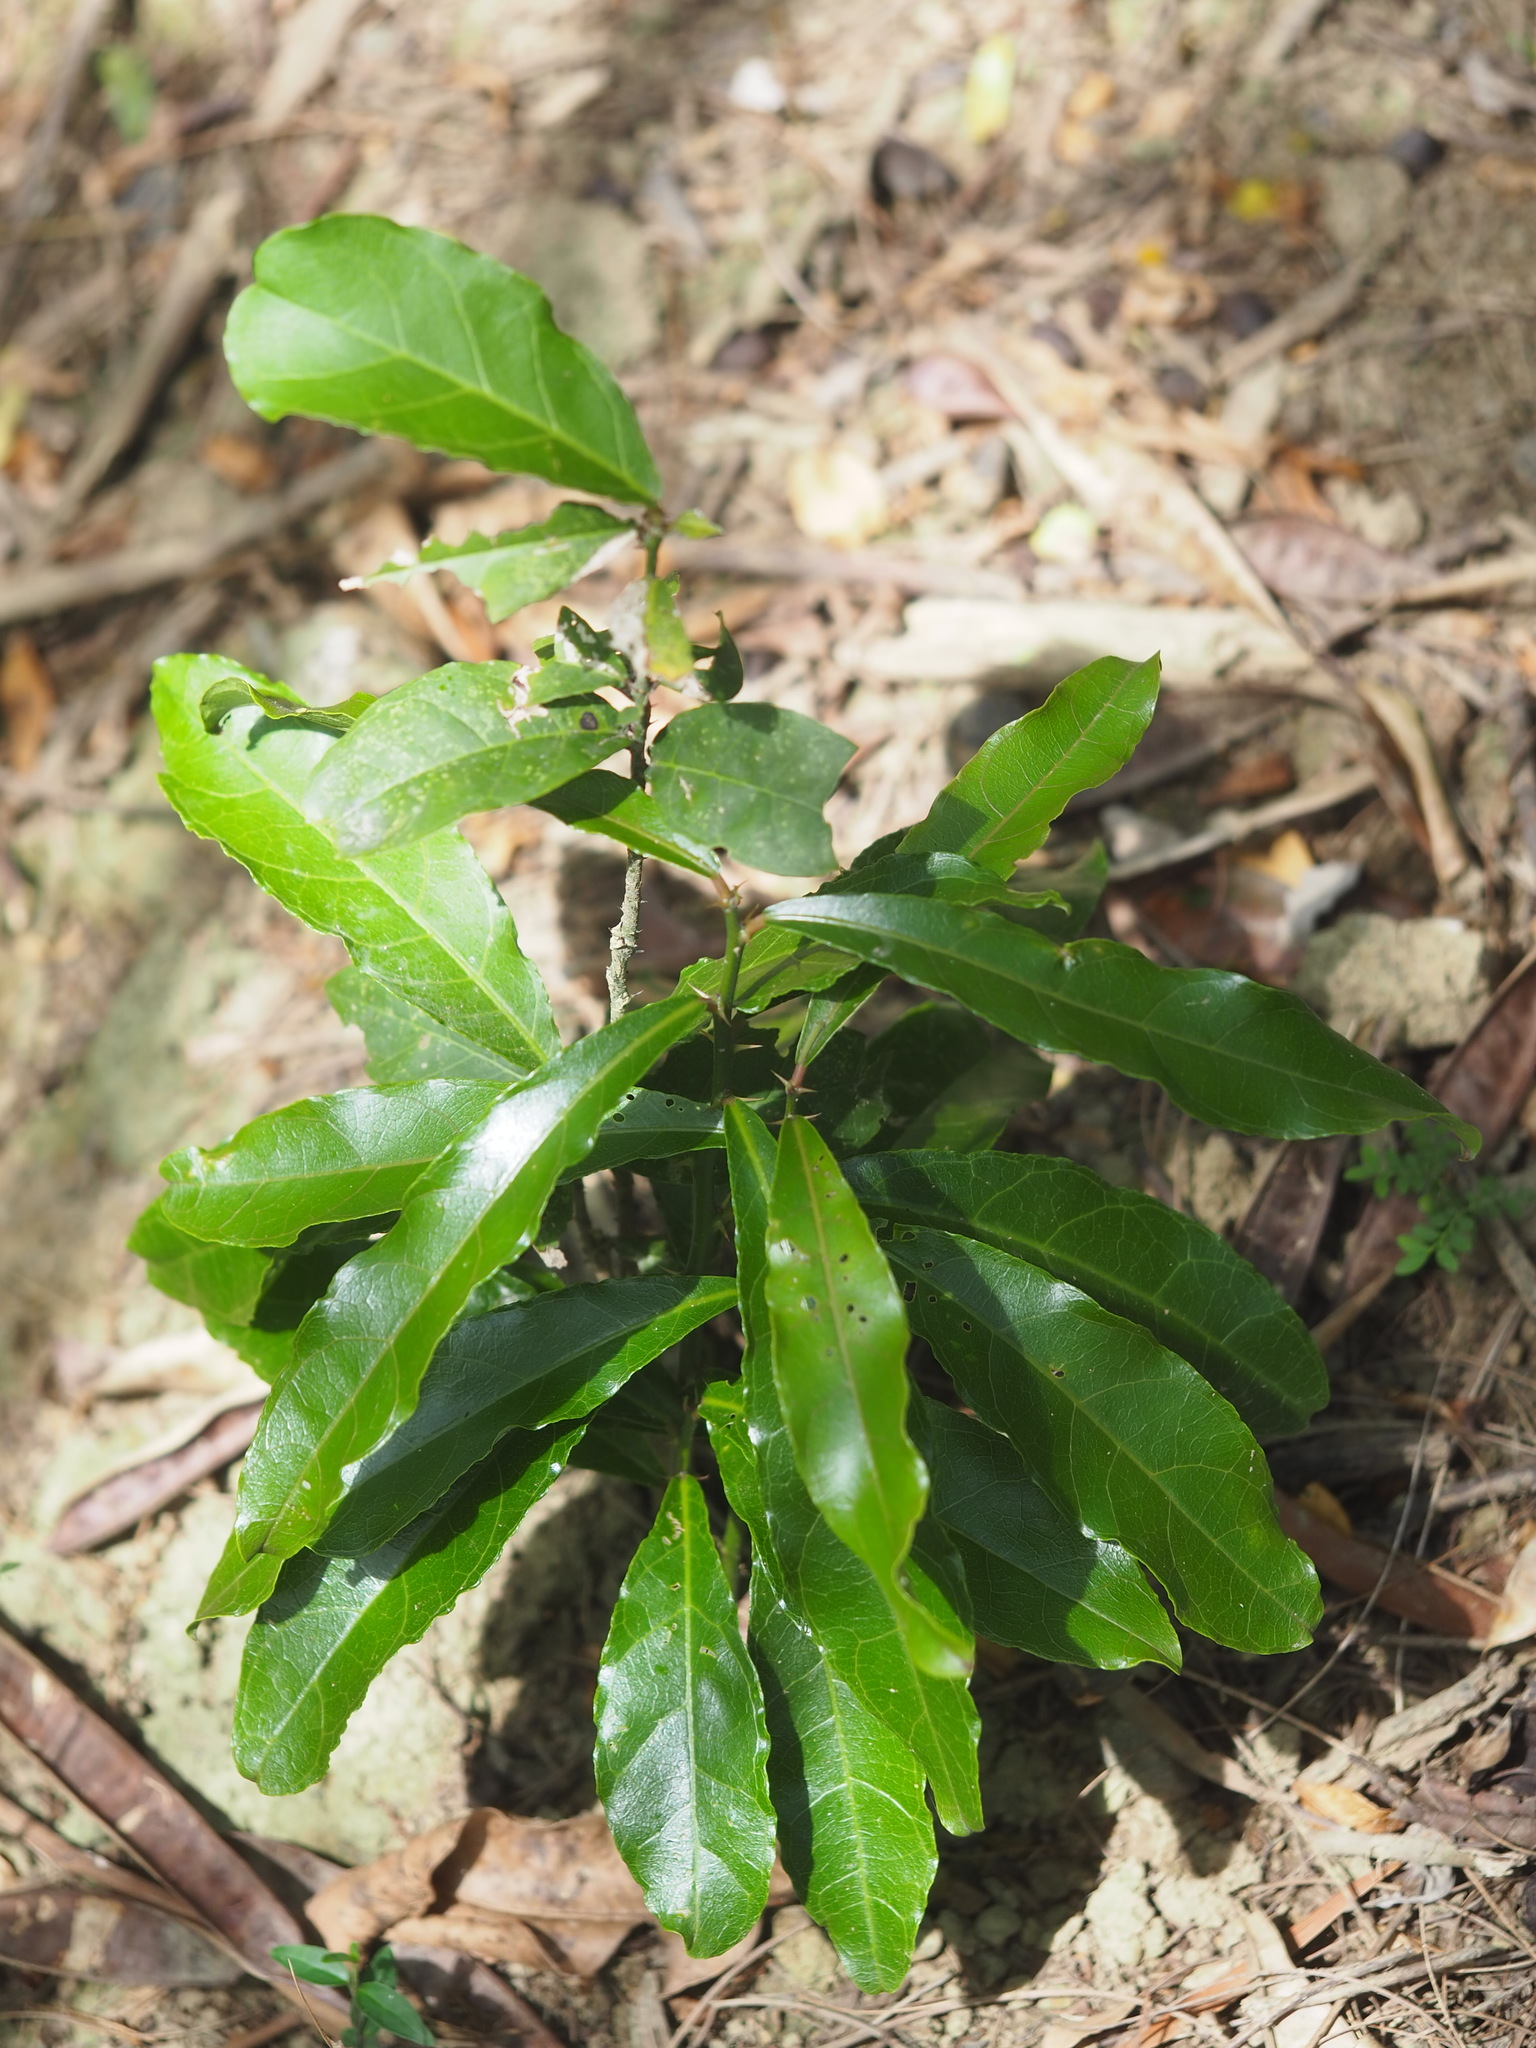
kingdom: Plantae
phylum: Tracheophyta
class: Magnoliopsida
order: Brassicales
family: Capparaceae
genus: Capparis
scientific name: Capparis henryi
